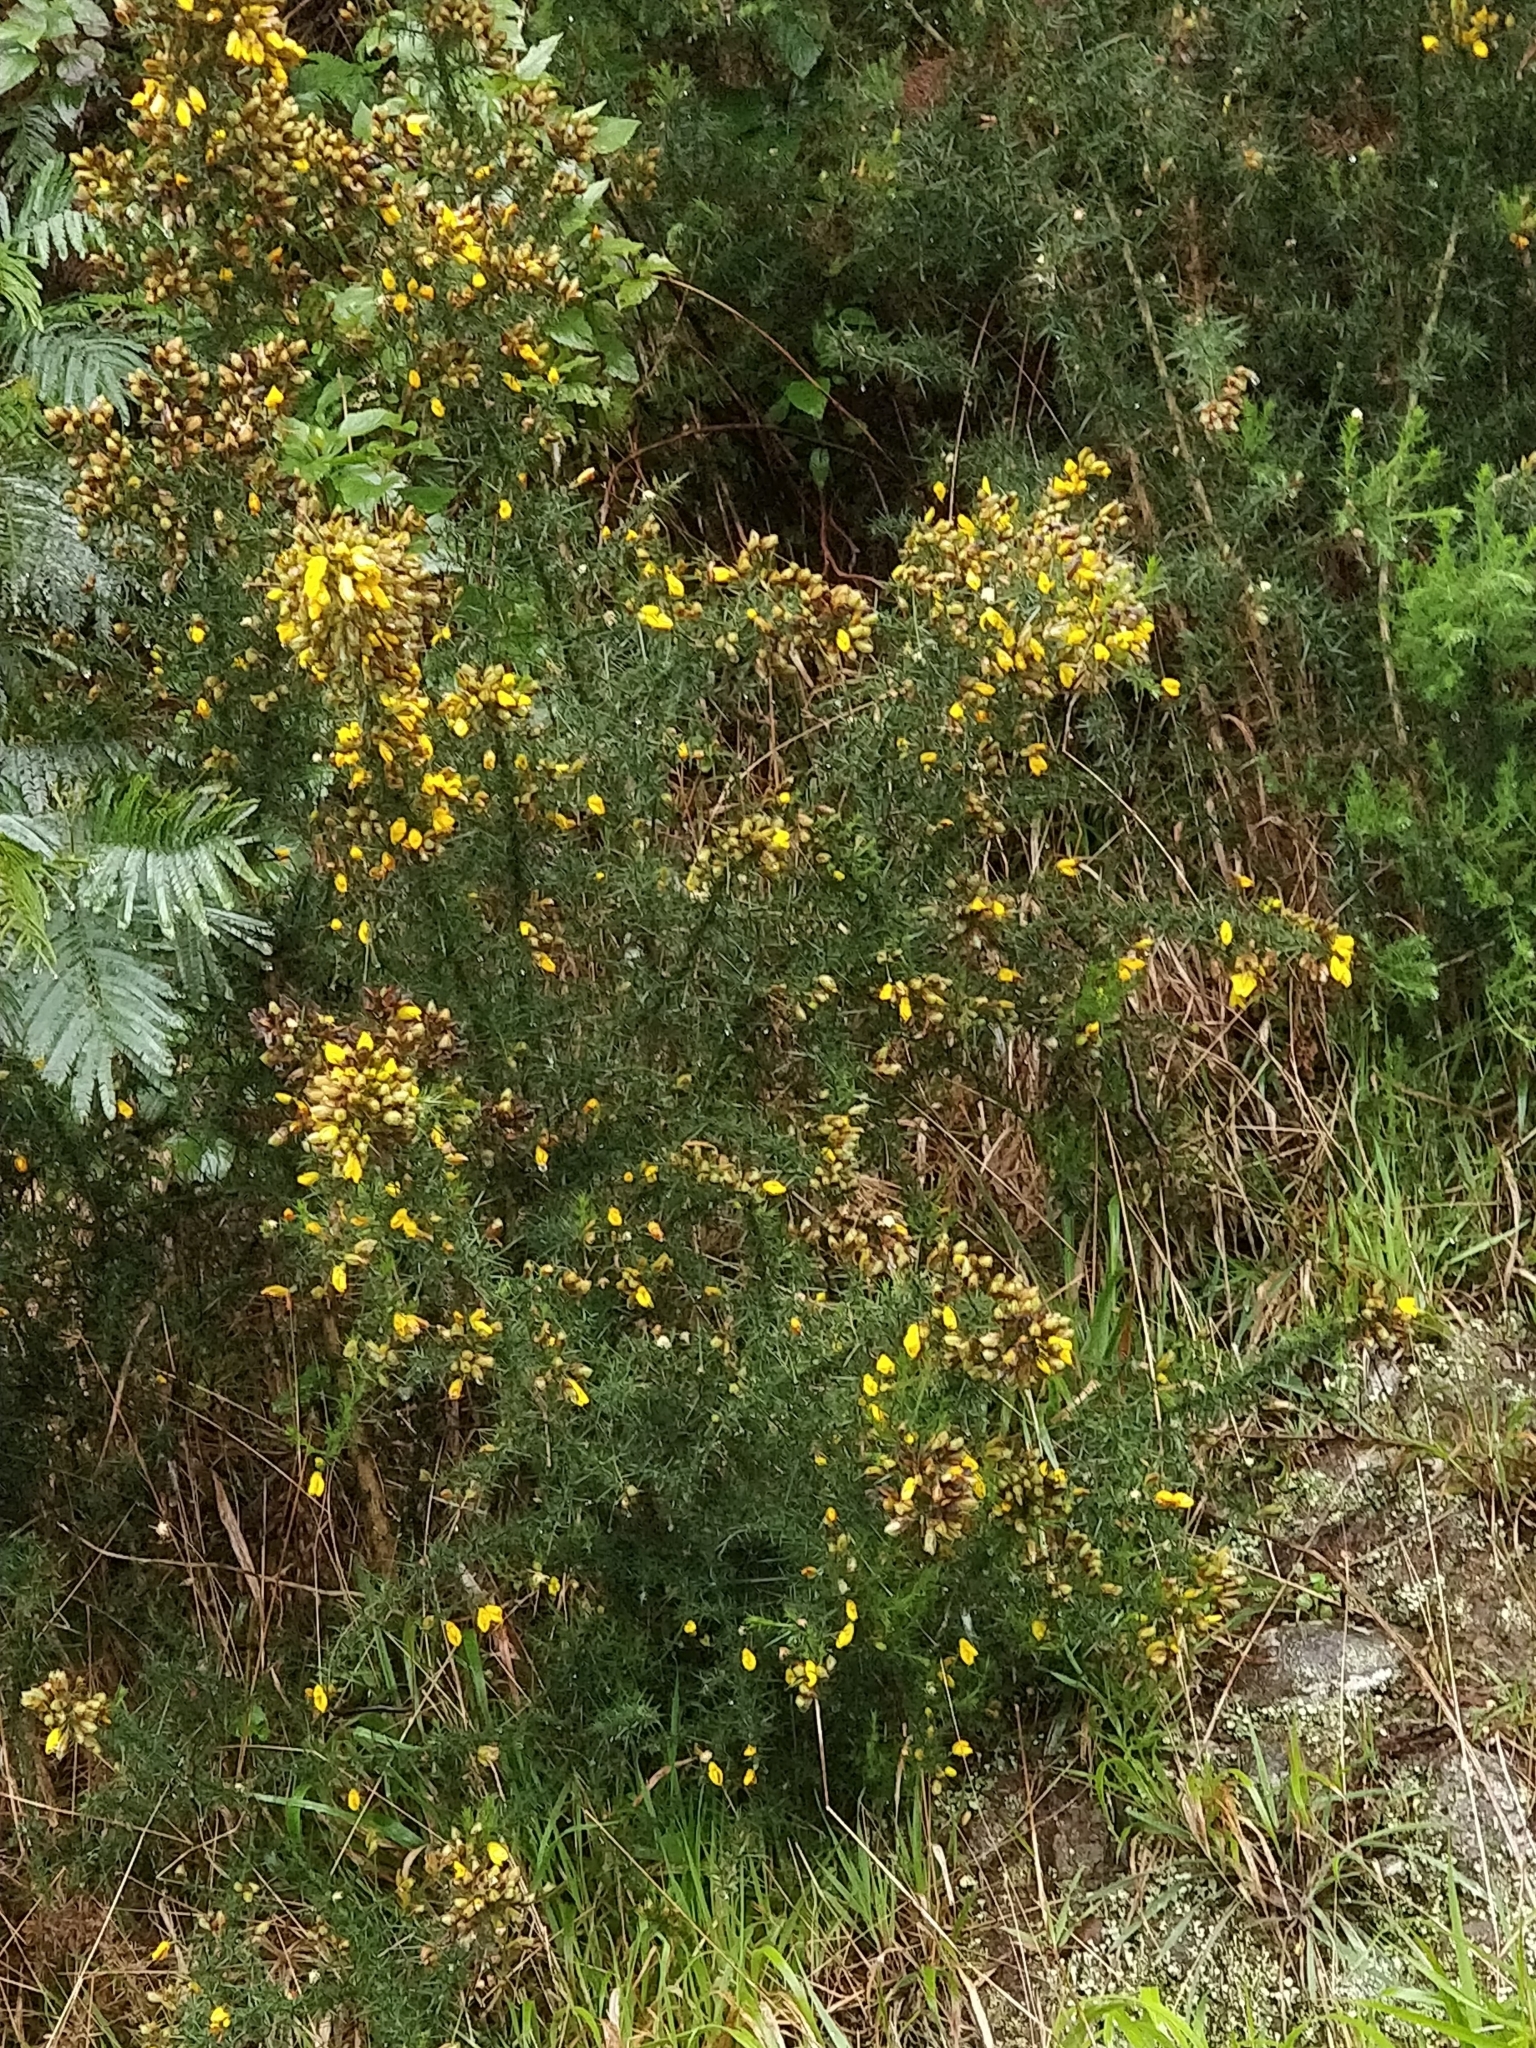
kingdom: Plantae
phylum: Tracheophyta
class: Magnoliopsida
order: Fabales
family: Fabaceae
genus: Ulex
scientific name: Ulex europaeus
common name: Common gorse
